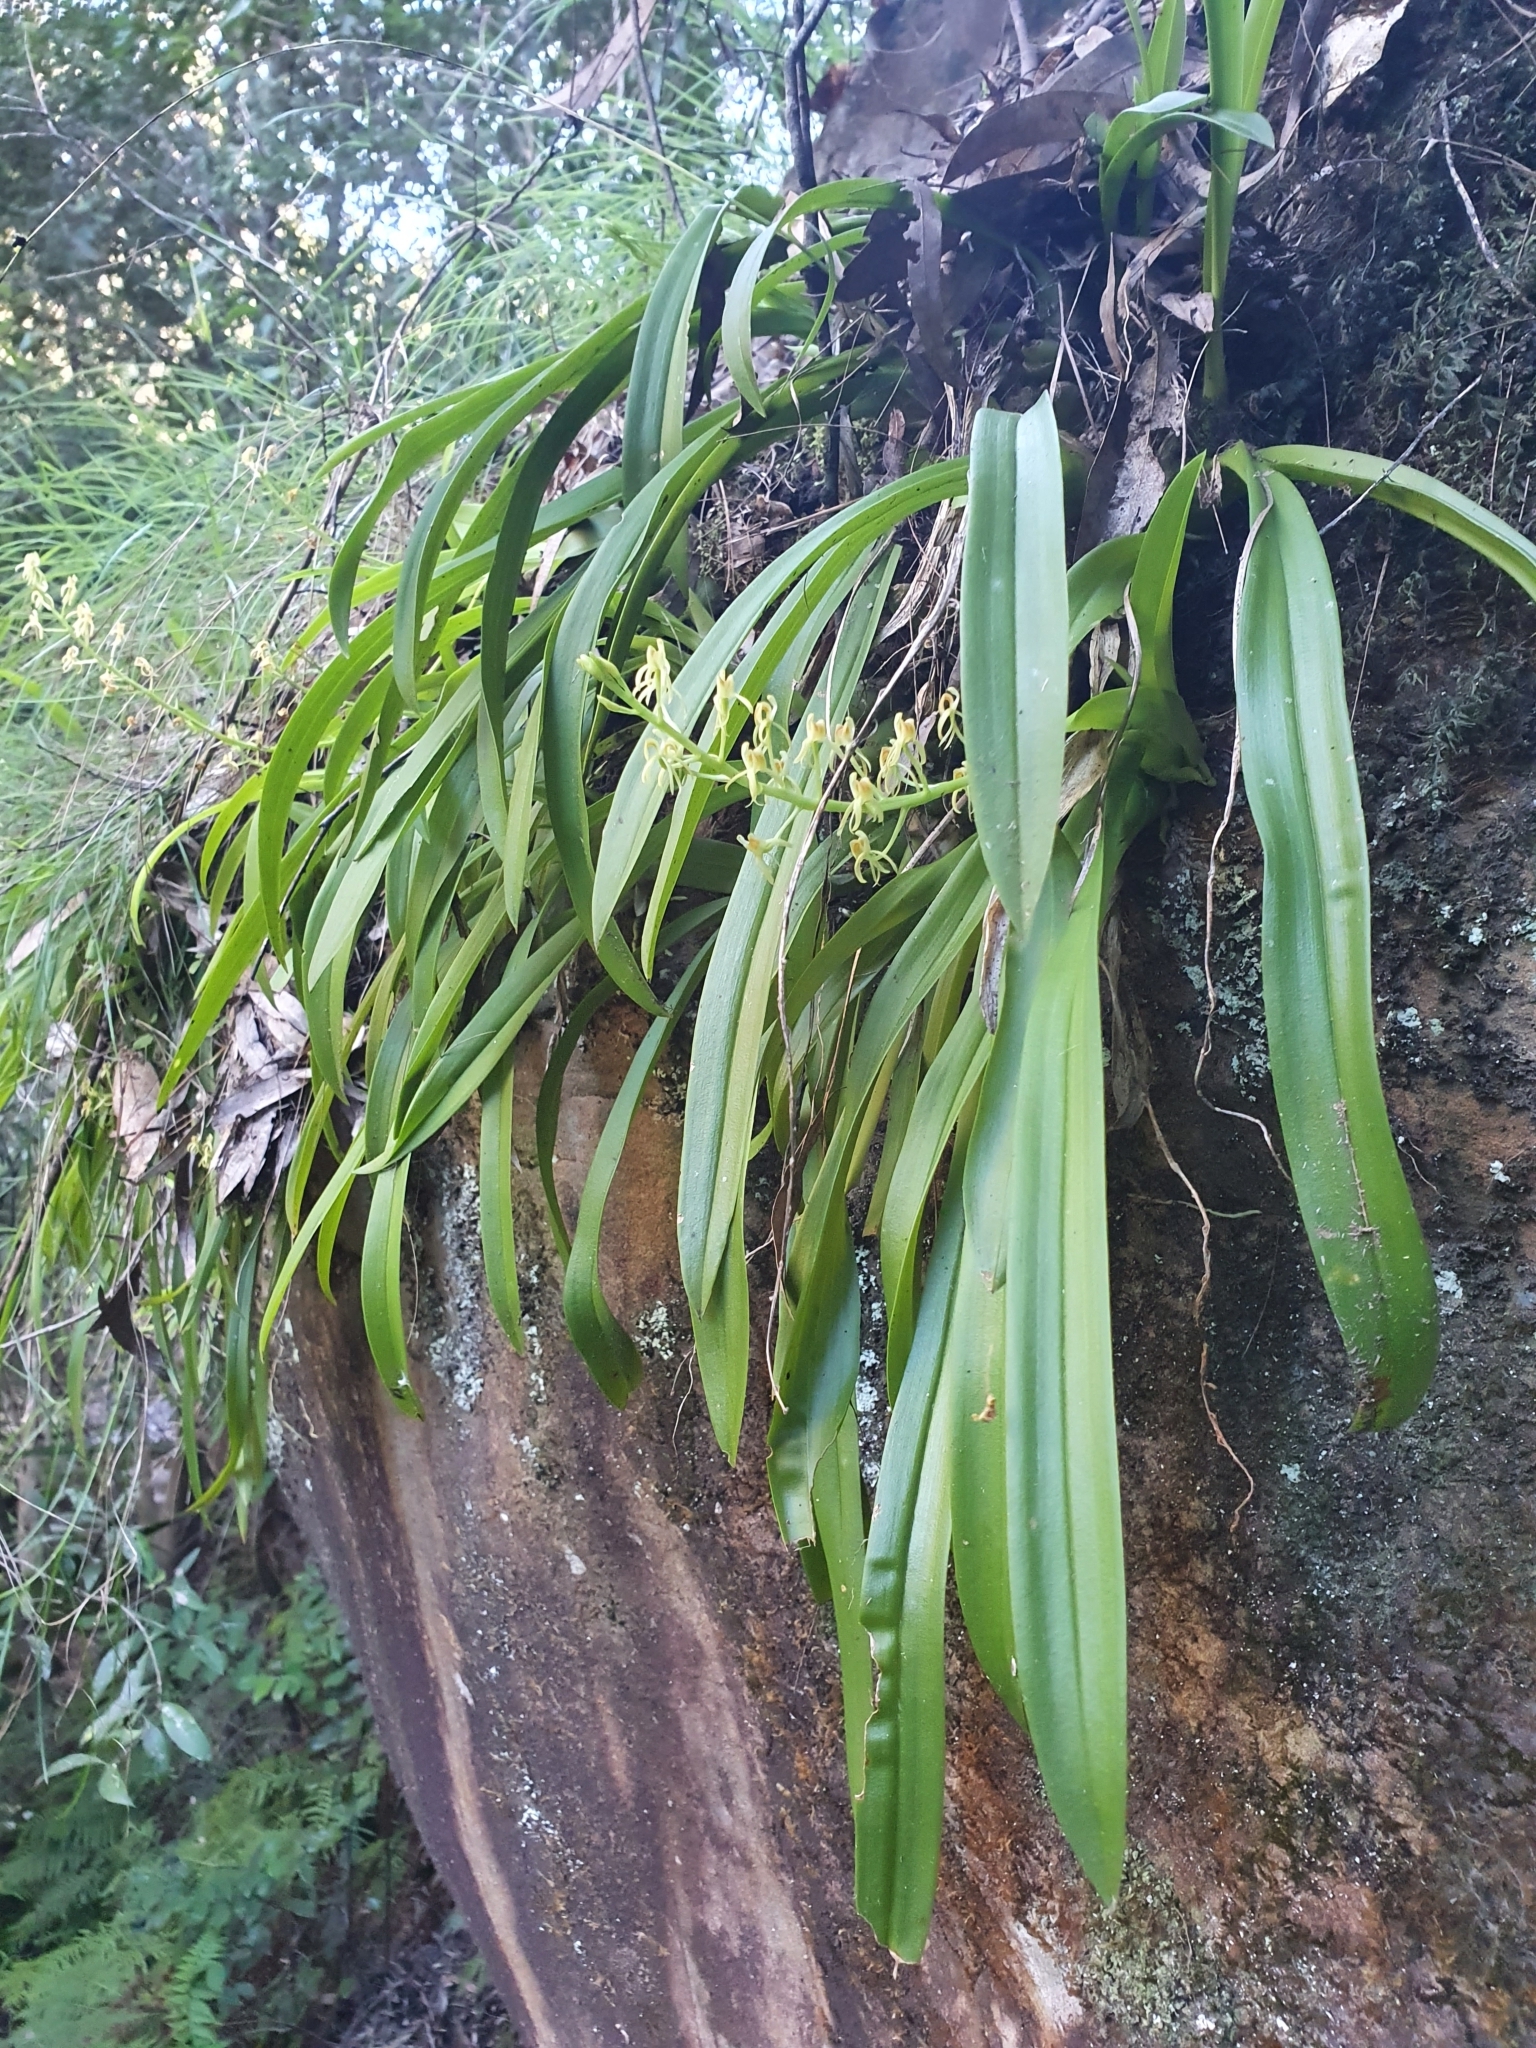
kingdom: Plantae
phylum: Tracheophyta
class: Liliopsida
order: Asparagales
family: Orchidaceae
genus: Liparis
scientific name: Liparis reflexa
